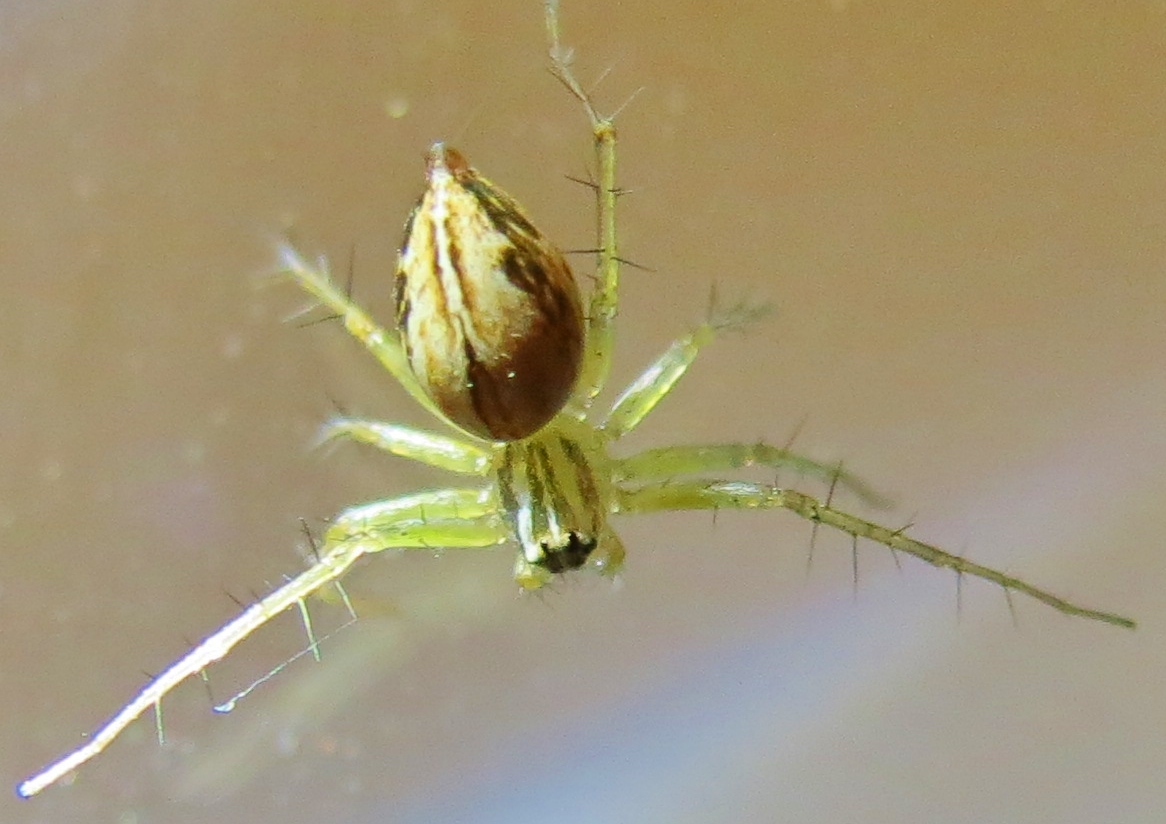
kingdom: Animalia
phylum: Arthropoda
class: Arachnida
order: Araneae
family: Oxyopidae
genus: Oxyopes
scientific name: Oxyopes salticus
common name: Lynx spiders
